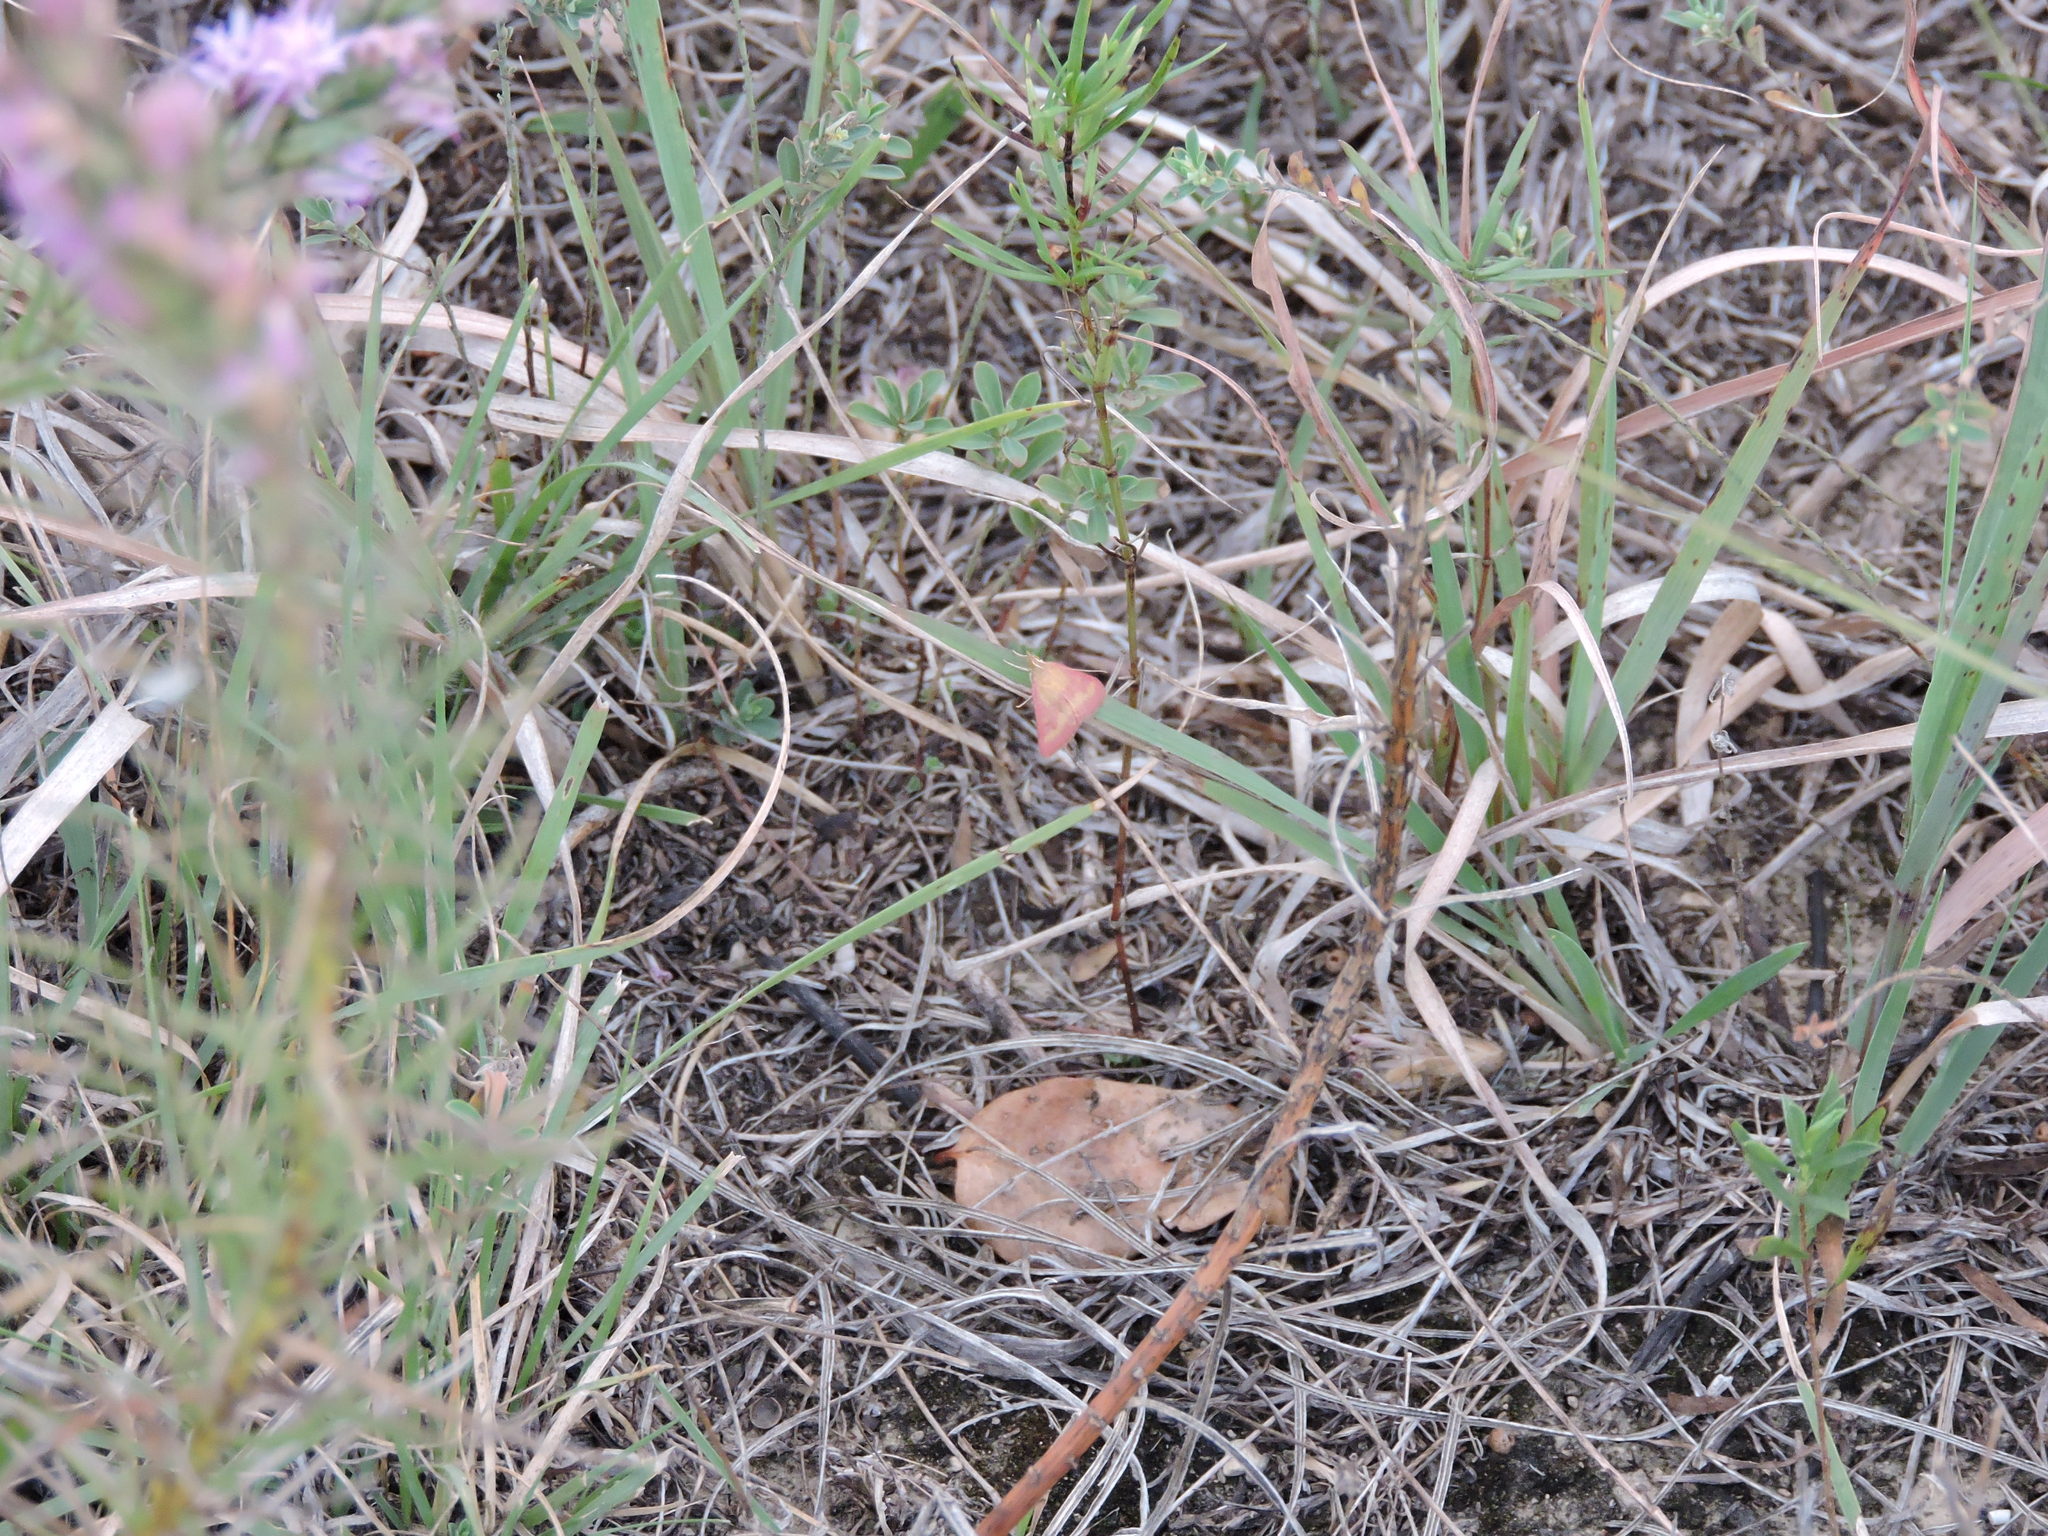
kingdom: Animalia
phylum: Arthropoda
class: Insecta
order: Lepidoptera
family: Crambidae
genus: Pyrausta
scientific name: Pyrausta laticlavia
